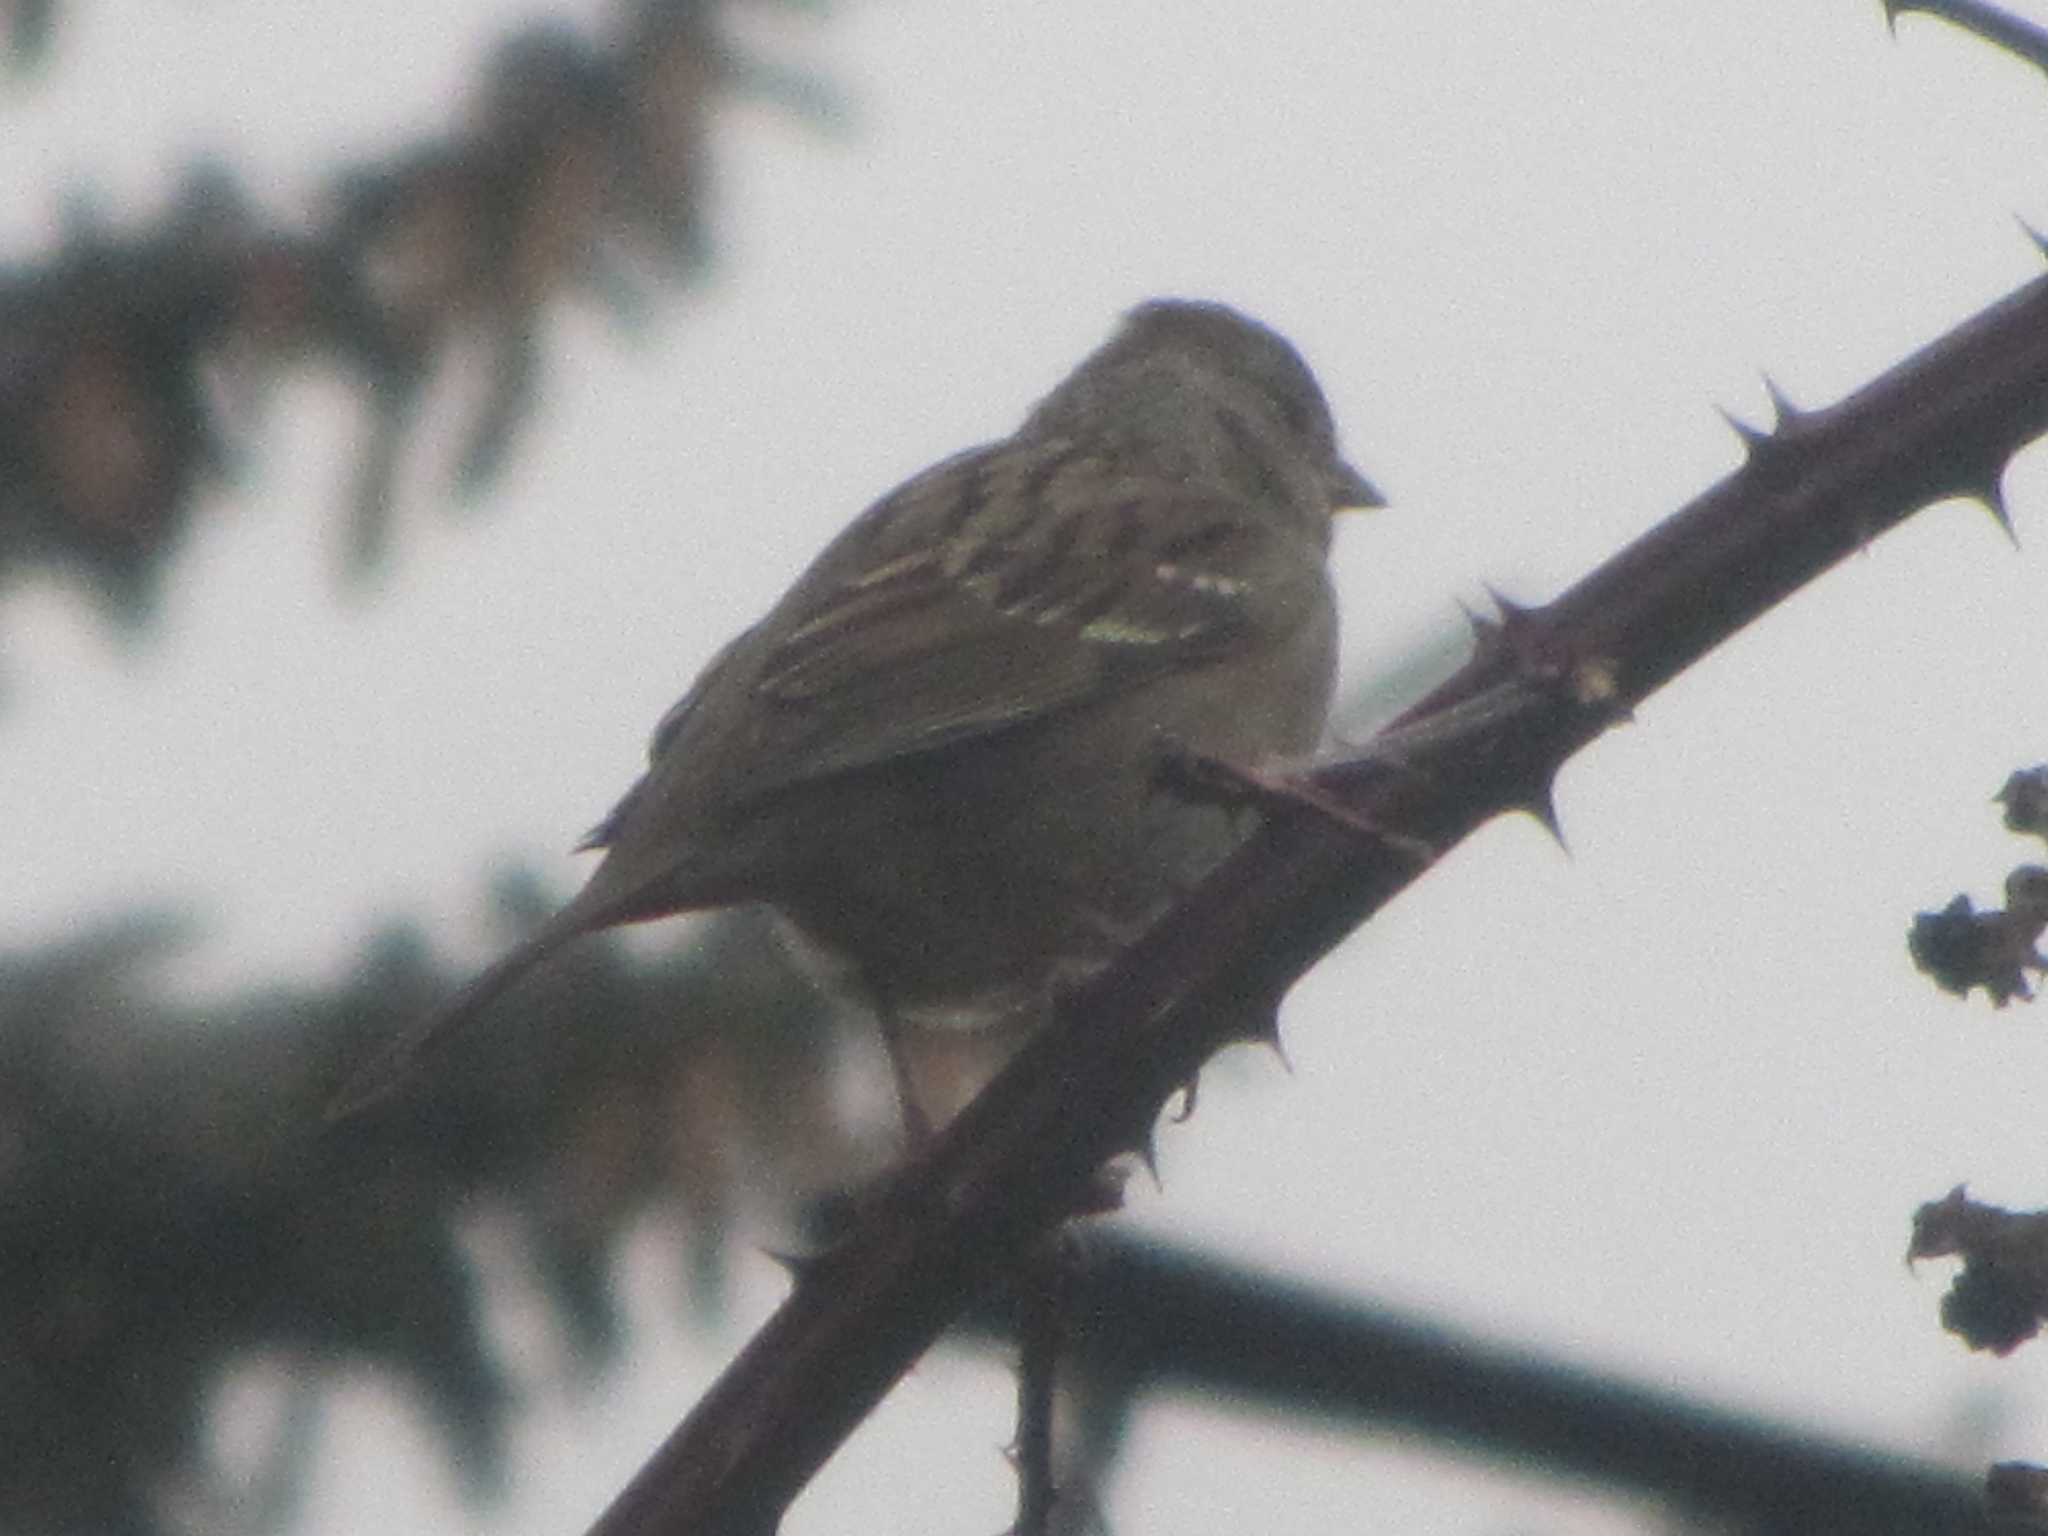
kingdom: Animalia
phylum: Chordata
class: Aves
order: Passeriformes
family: Passerellidae
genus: Zonotrichia
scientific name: Zonotrichia atricapilla
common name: Golden-crowned sparrow
